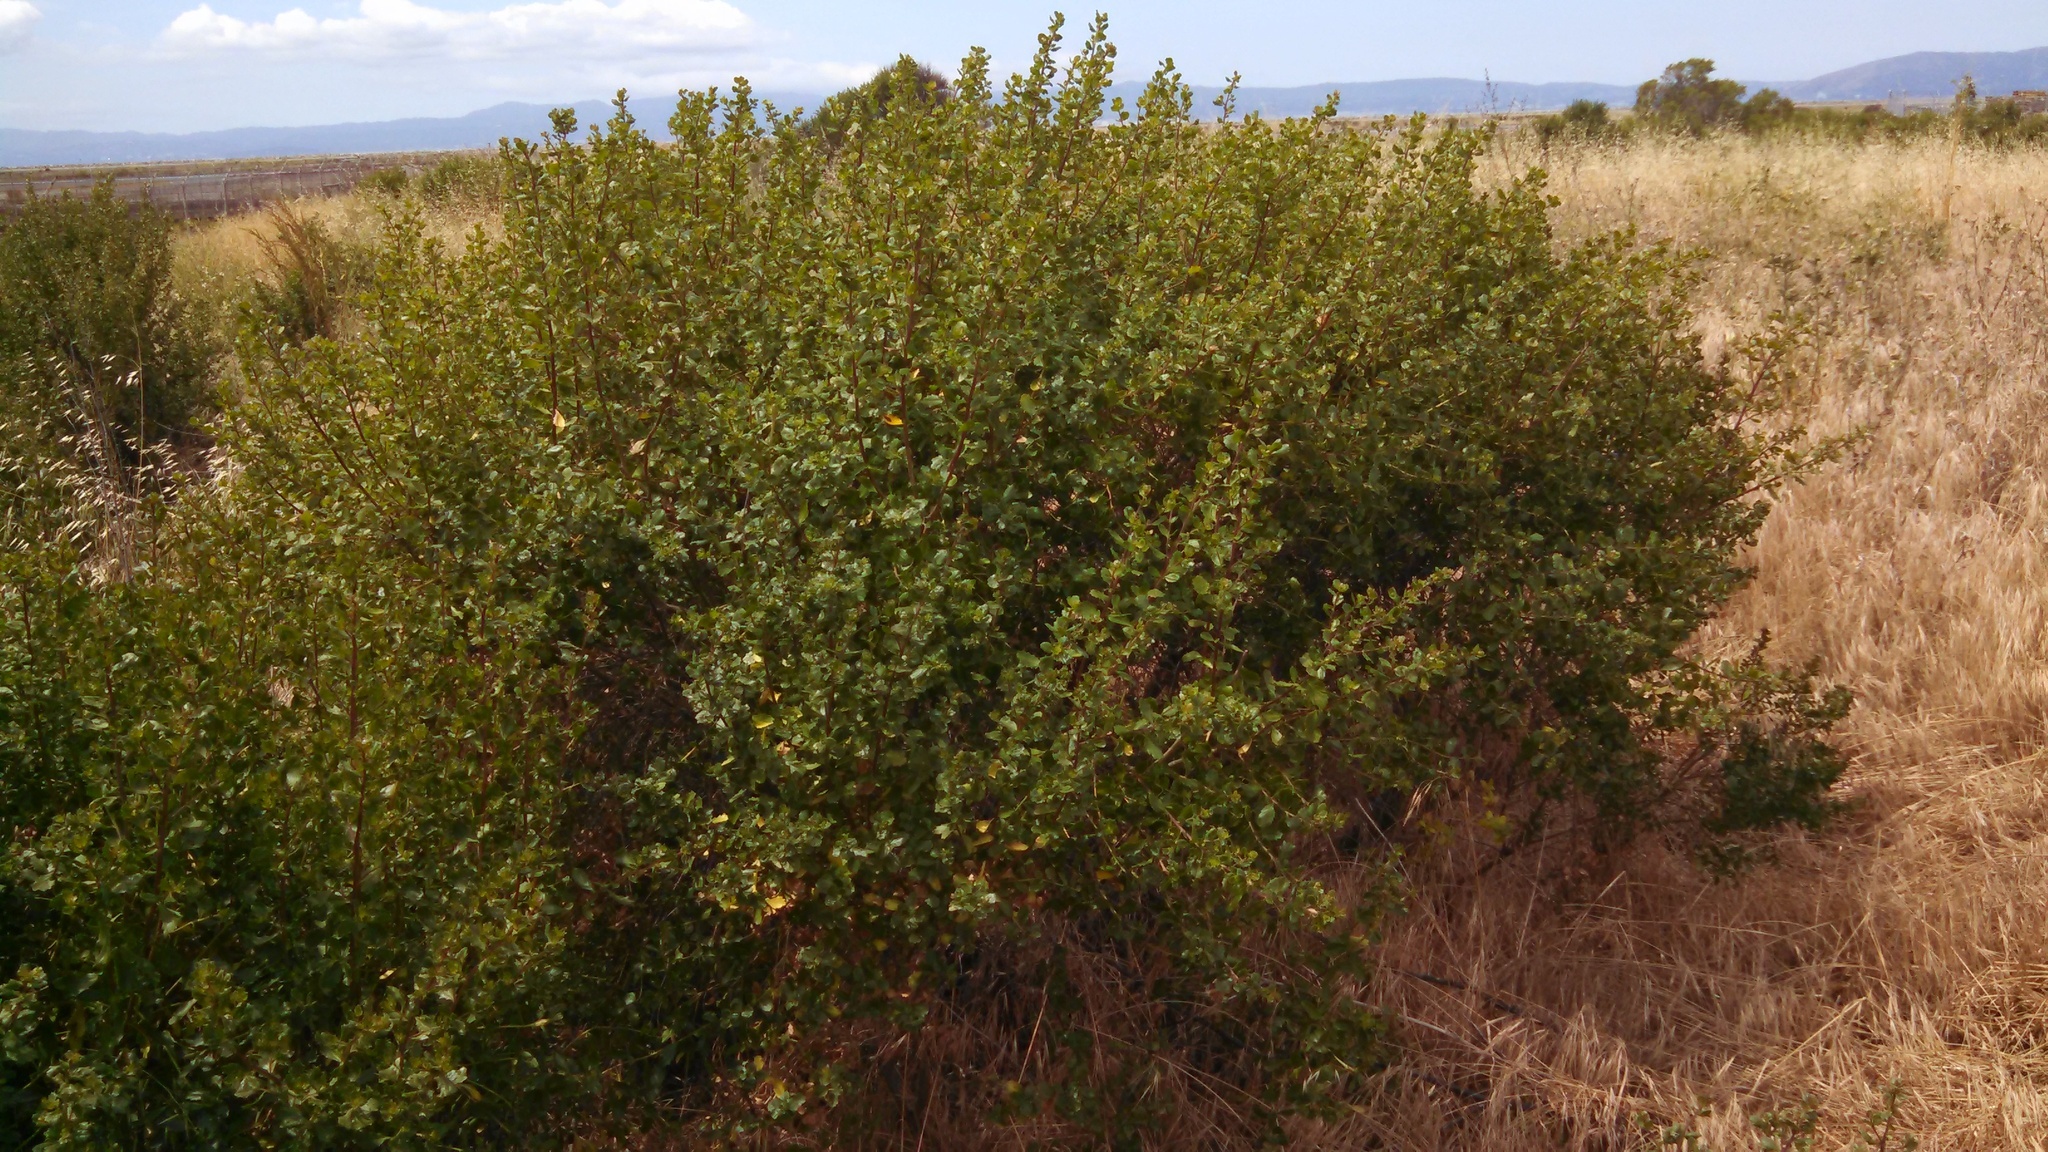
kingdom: Plantae
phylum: Tracheophyta
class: Magnoliopsida
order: Asterales
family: Asteraceae
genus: Baccharis
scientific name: Baccharis pilularis
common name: Coyotebrush
